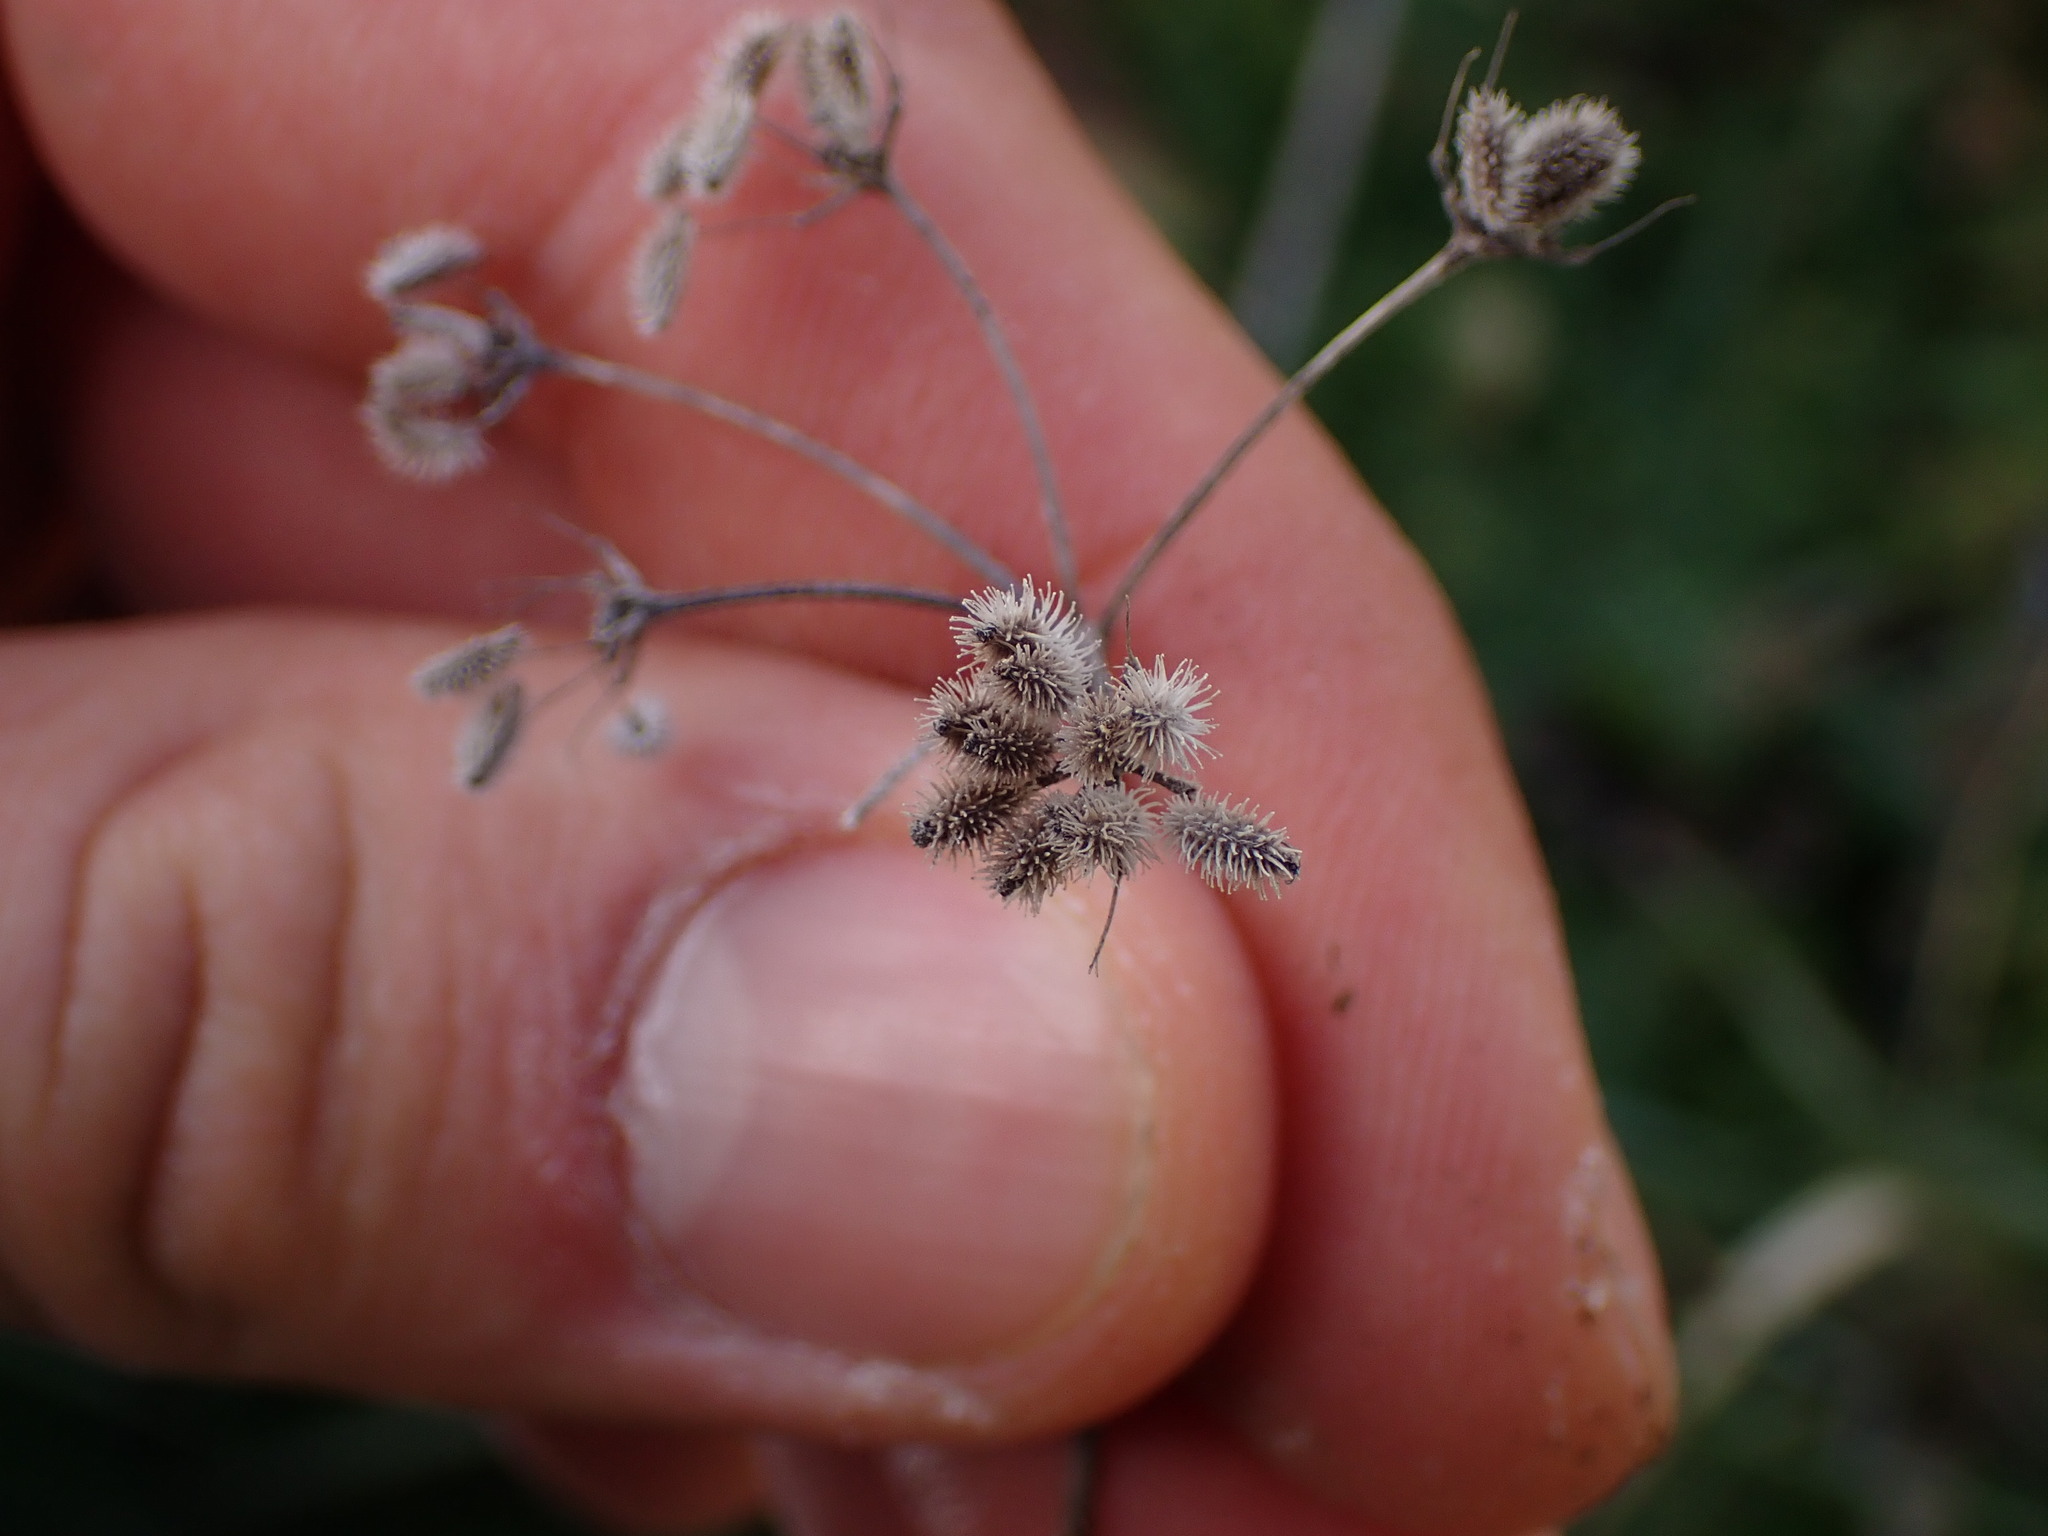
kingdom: Plantae
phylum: Tracheophyta
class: Magnoliopsida
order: Apiales
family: Apiaceae
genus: Torilis
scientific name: Torilis arvensis
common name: Spreading hedge-parsley
